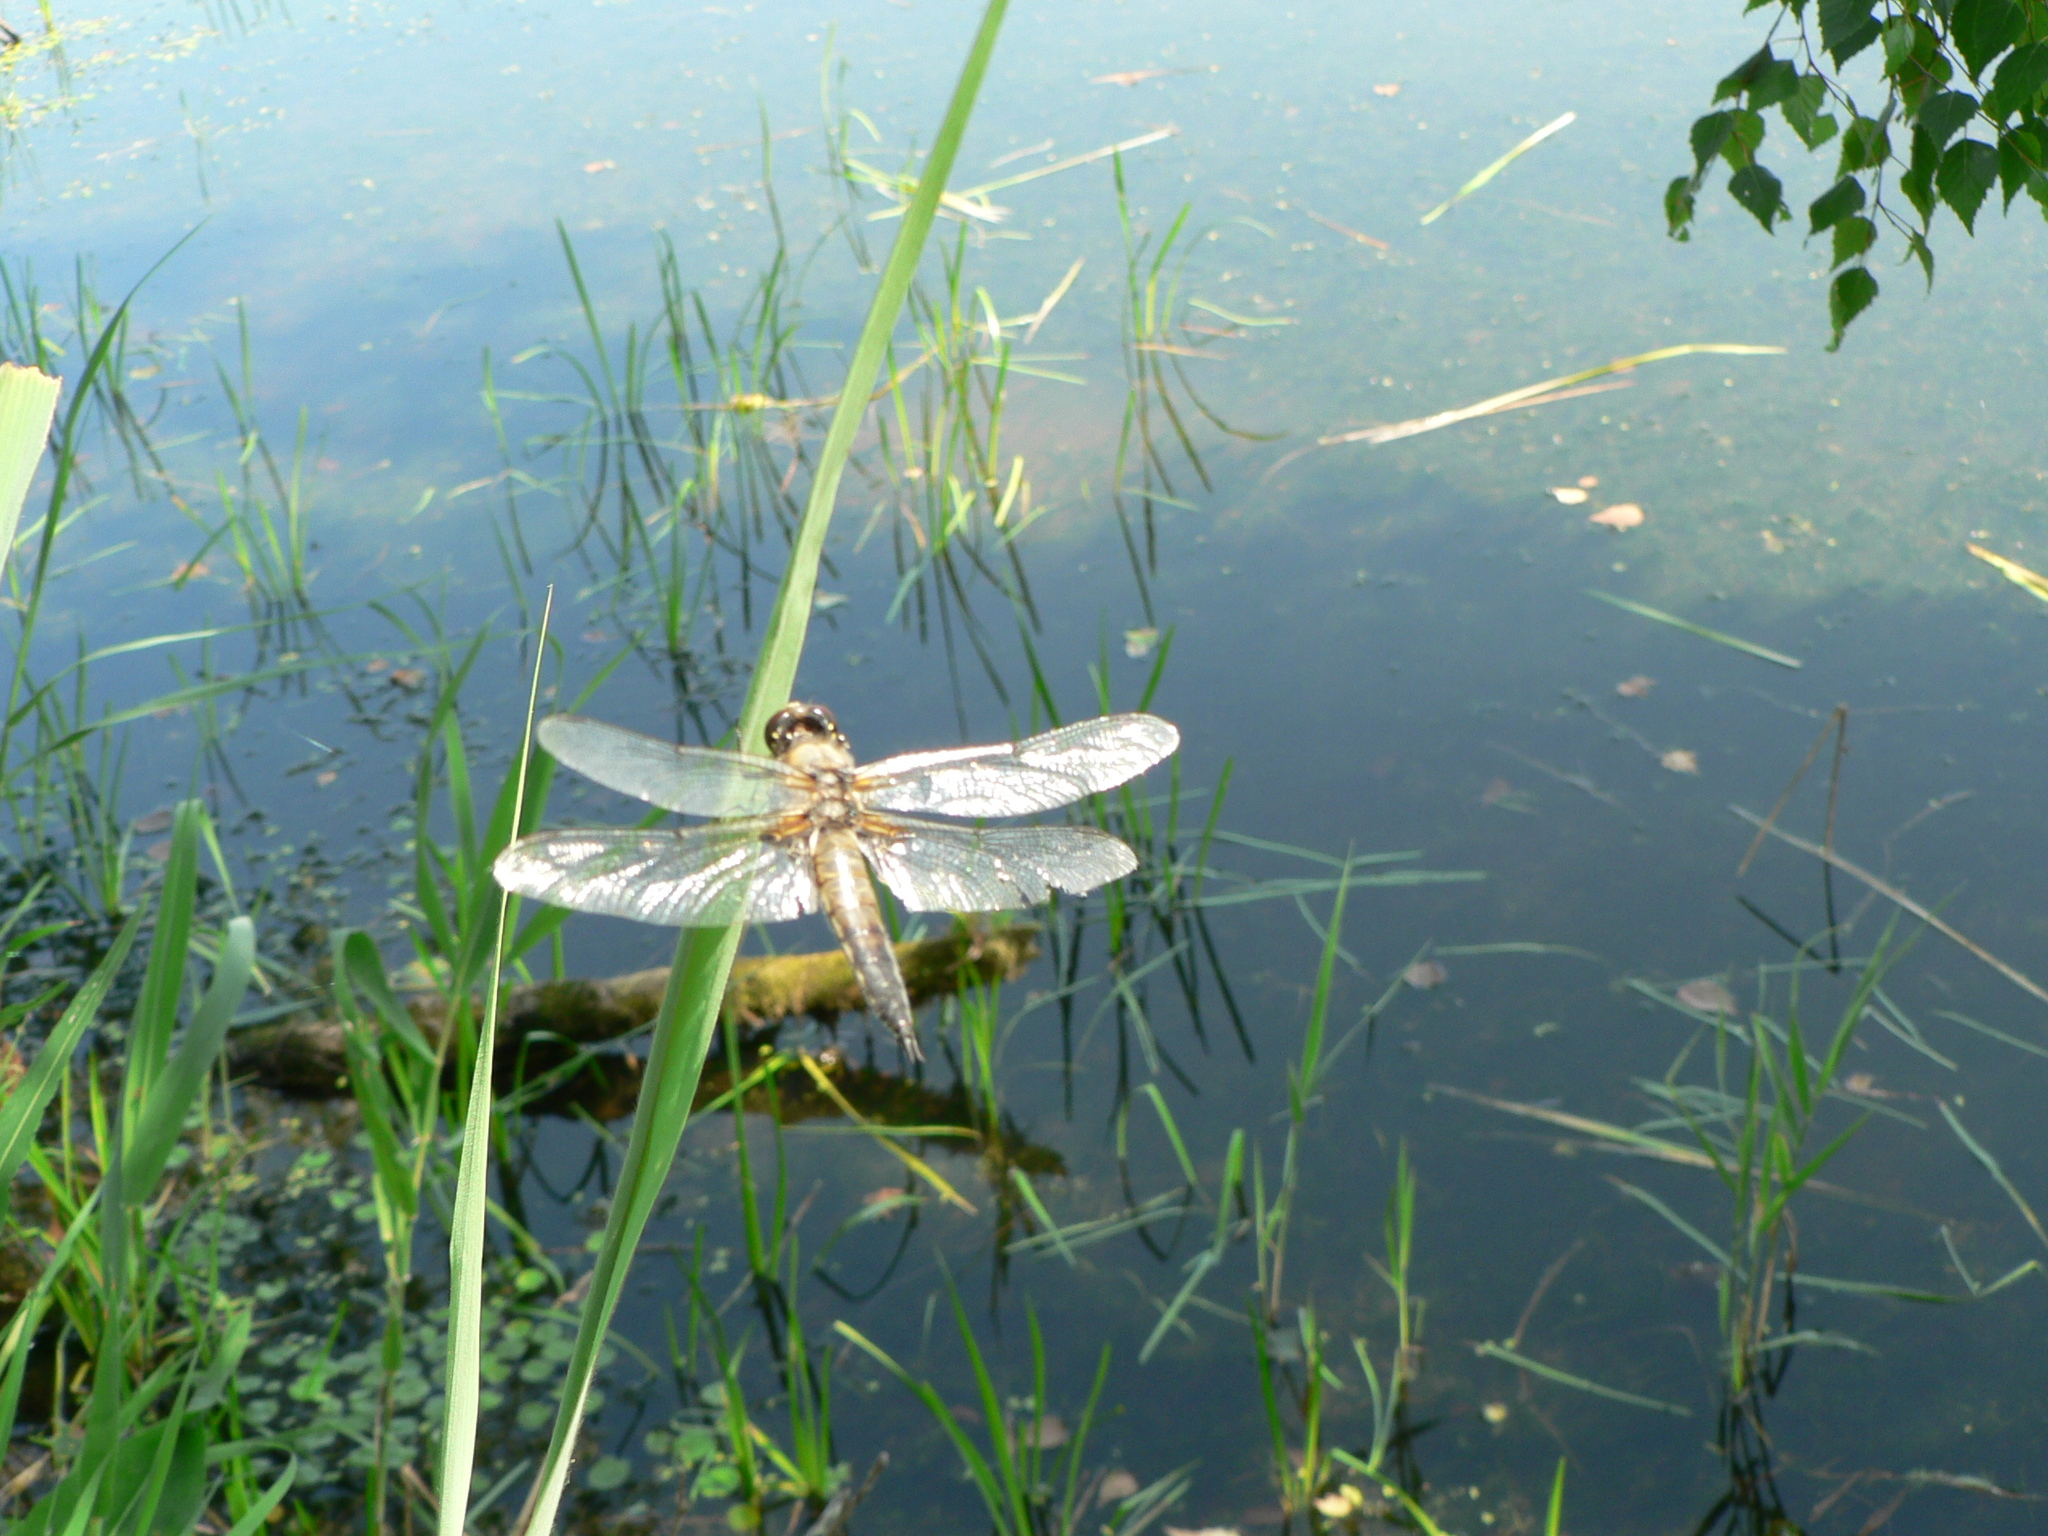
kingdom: Animalia
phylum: Arthropoda
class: Insecta
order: Odonata
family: Libellulidae
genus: Libellula
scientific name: Libellula quadrimaculata
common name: Four-spotted chaser
